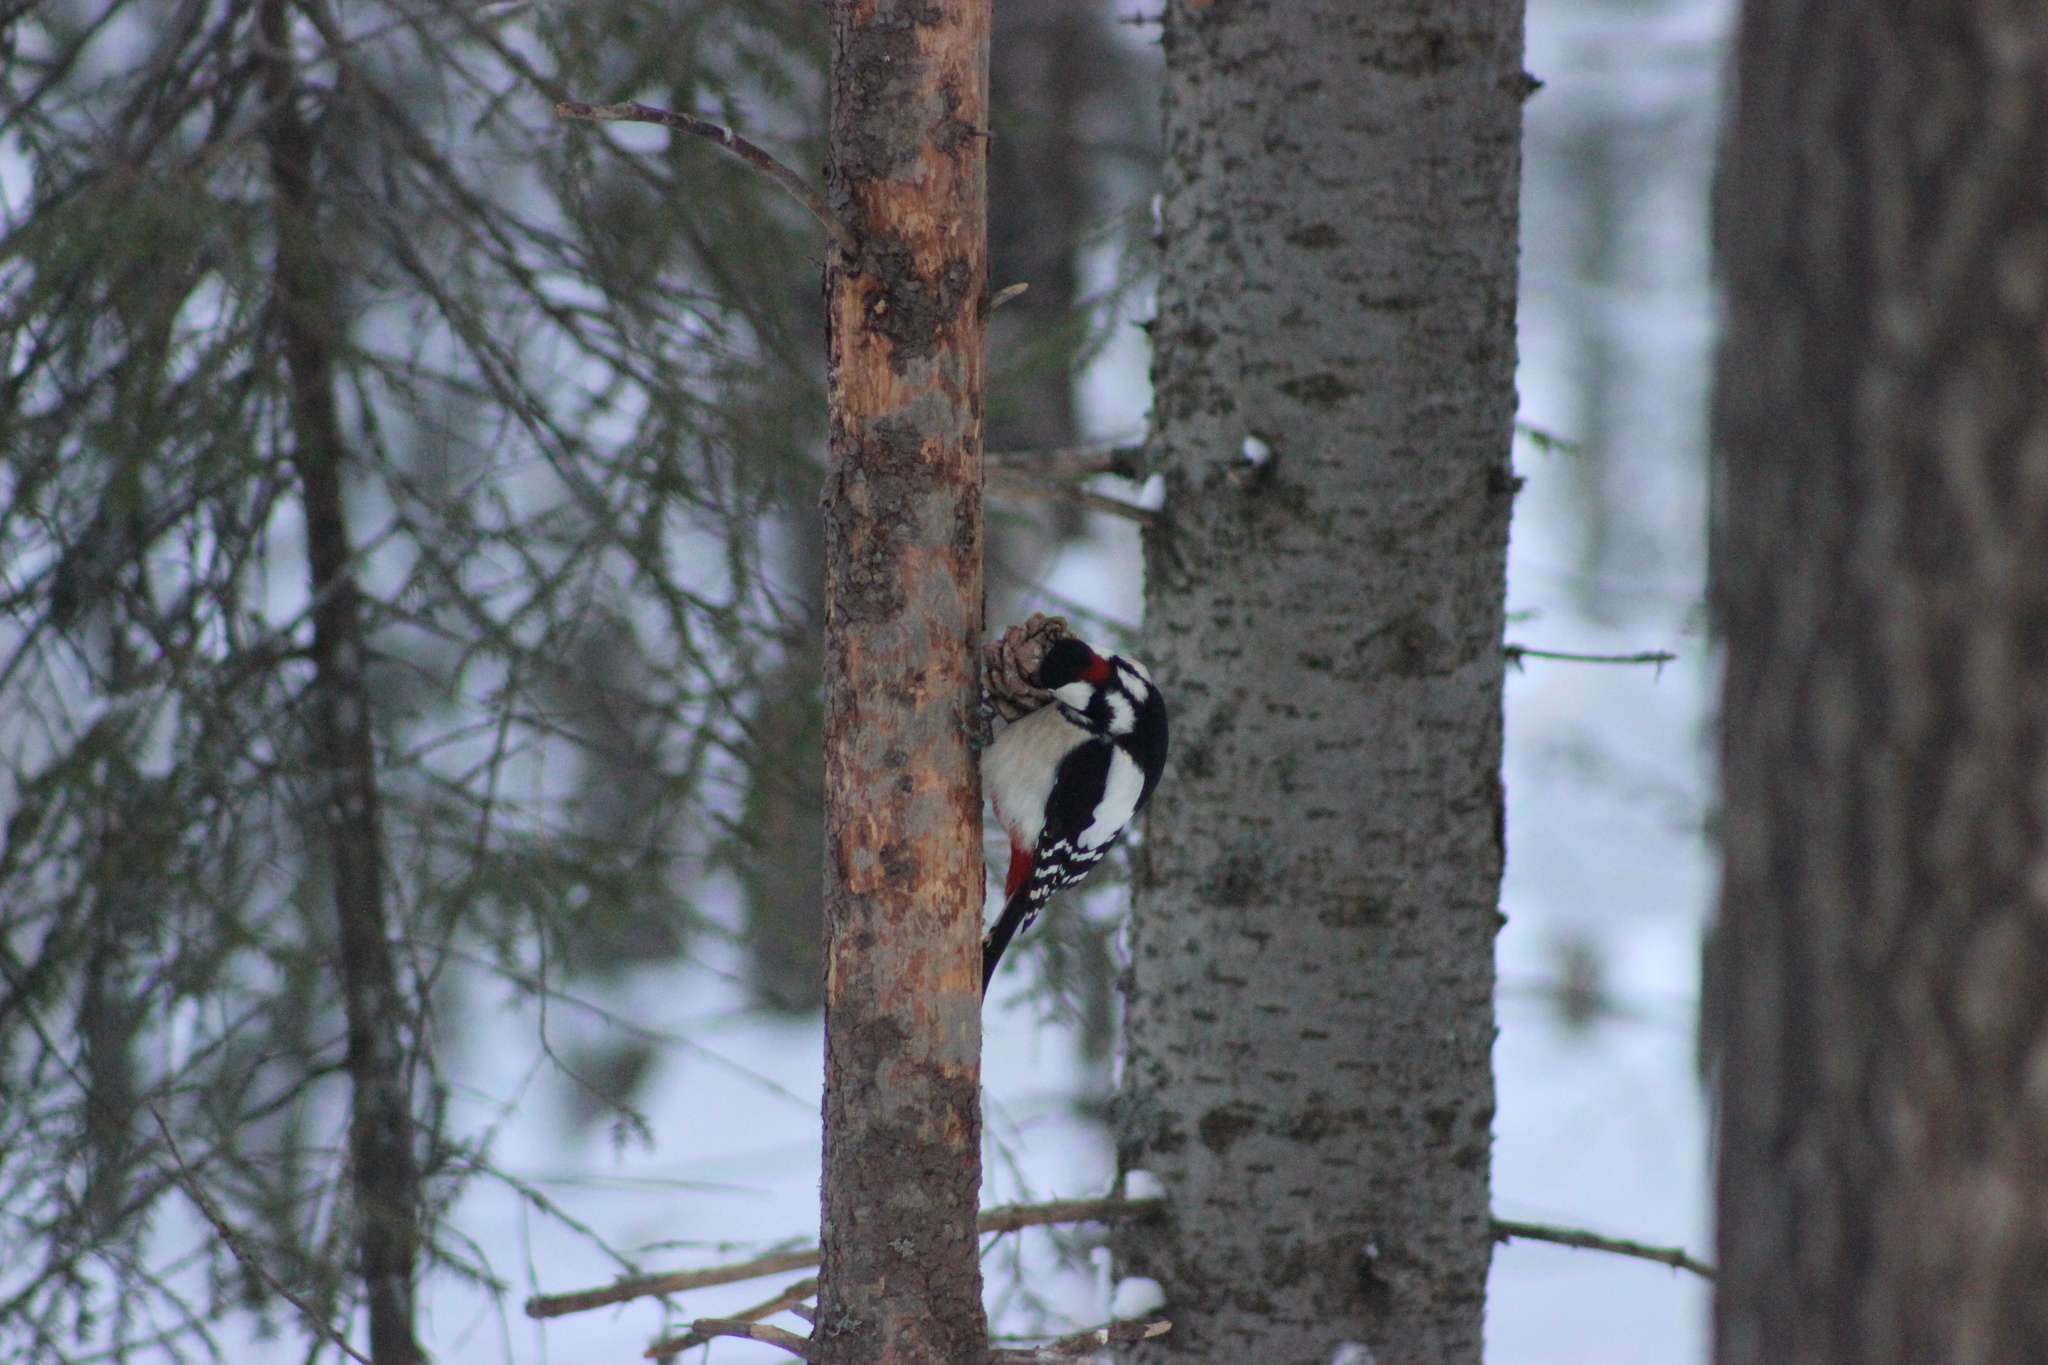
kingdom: Animalia
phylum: Chordata
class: Aves
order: Piciformes
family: Picidae
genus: Dendrocopos
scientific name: Dendrocopos major
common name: Great spotted woodpecker
